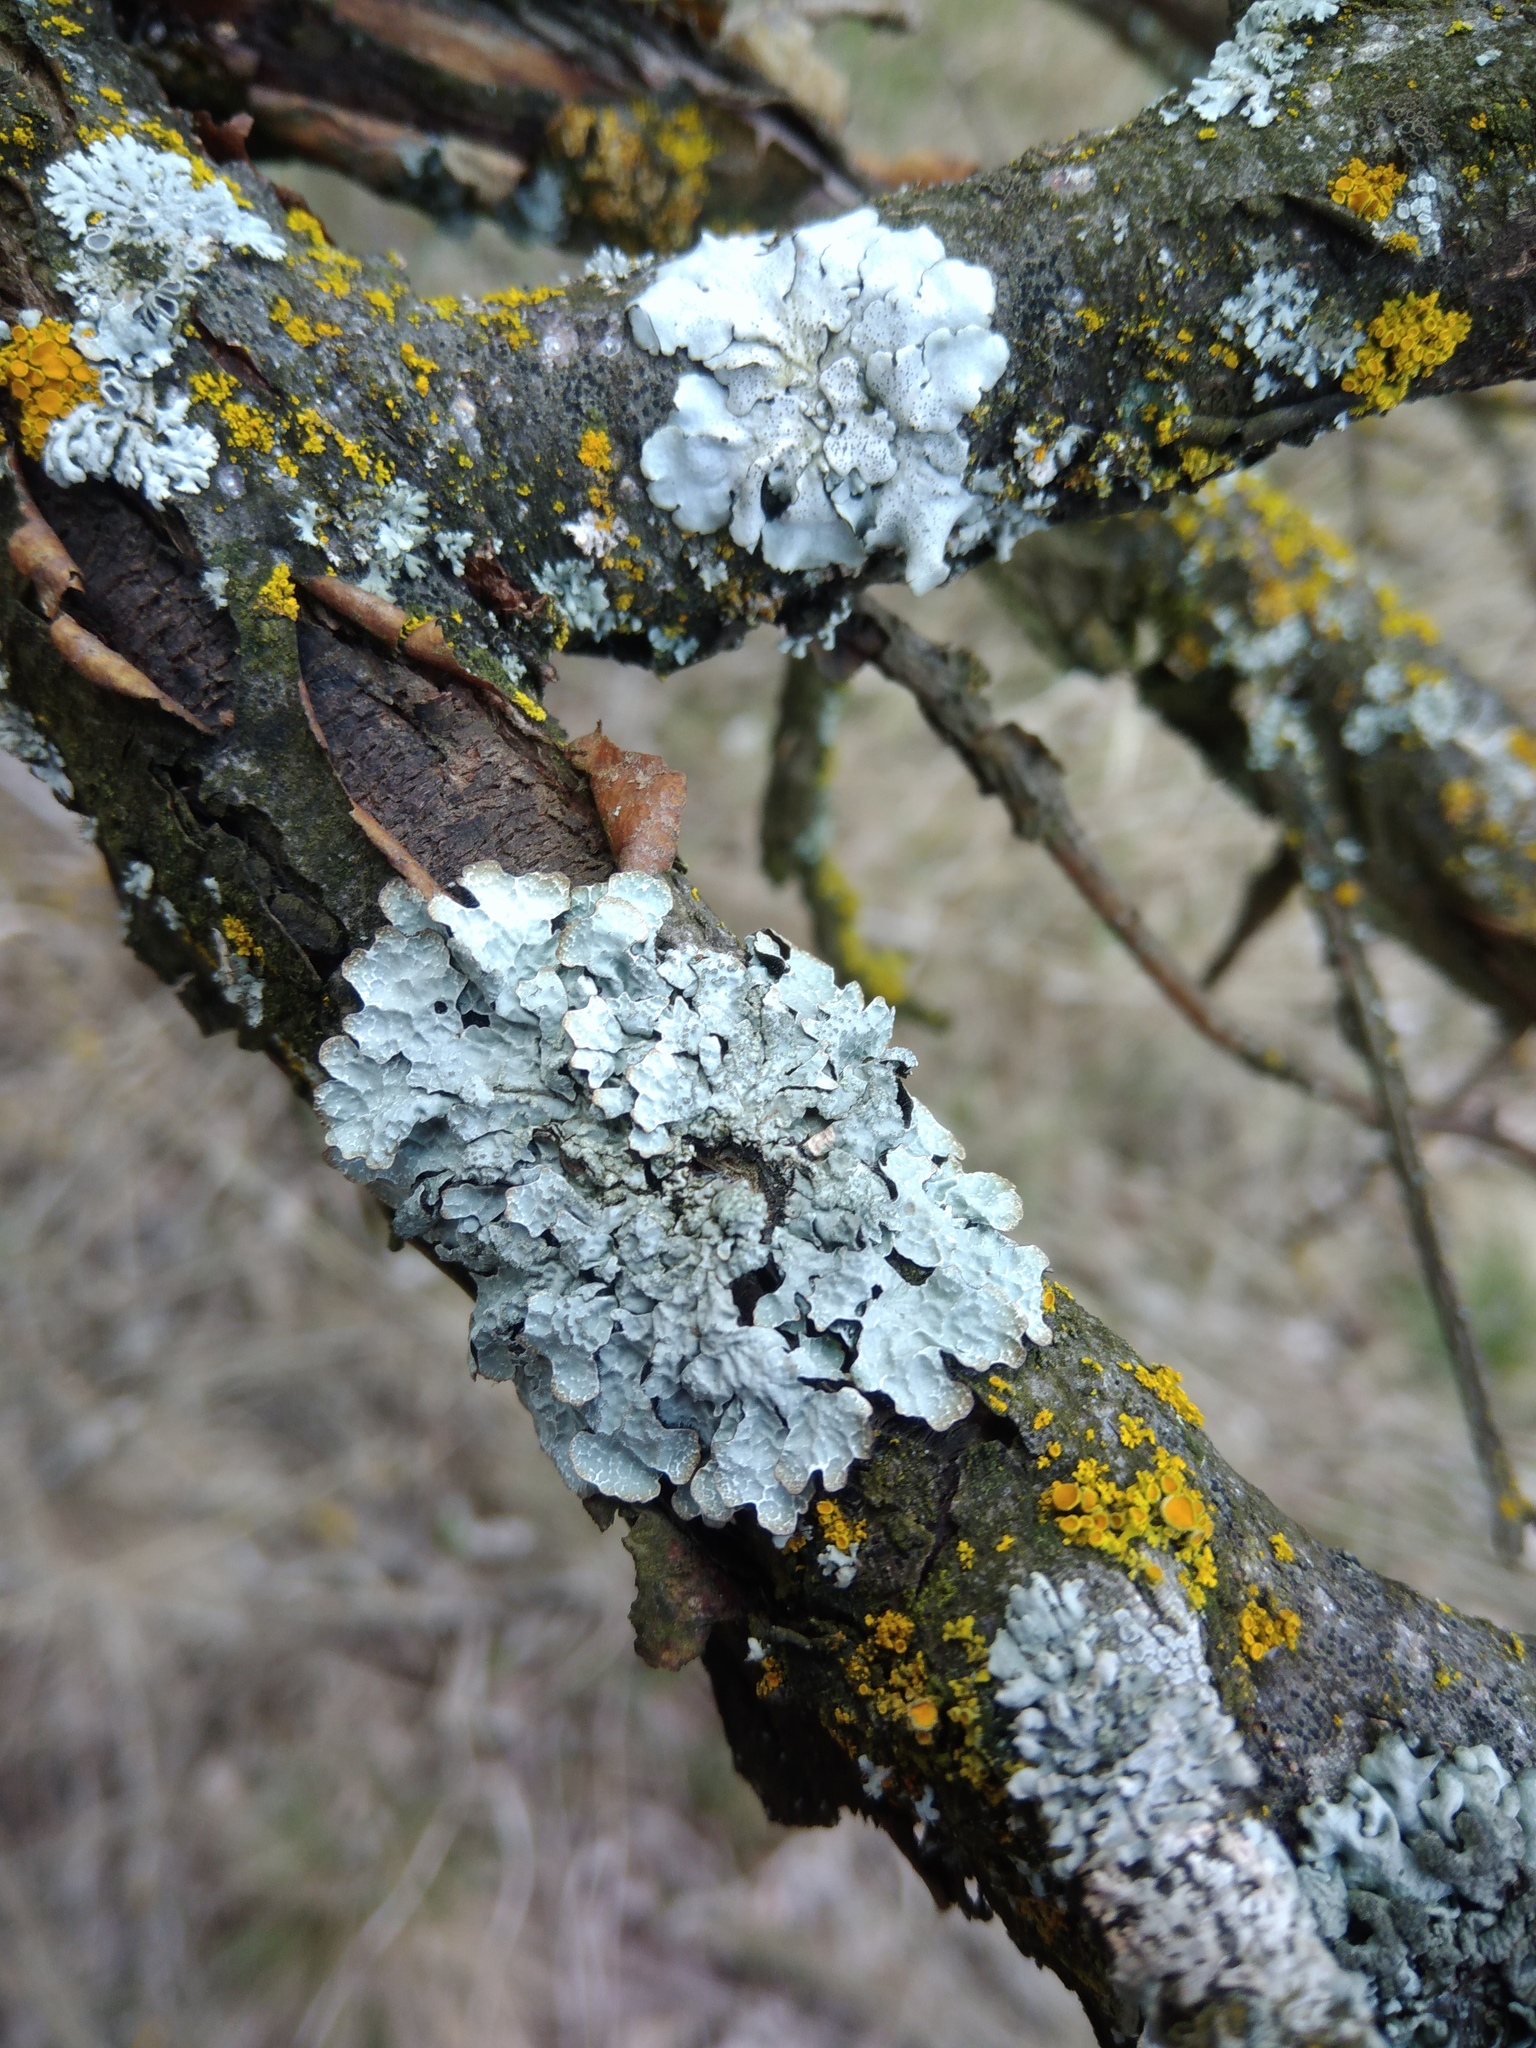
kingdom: Fungi
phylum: Ascomycota
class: Lecanoromycetes
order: Lecanorales
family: Parmeliaceae
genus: Parmelia
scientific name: Parmelia sulcata
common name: Netted shield lichen
